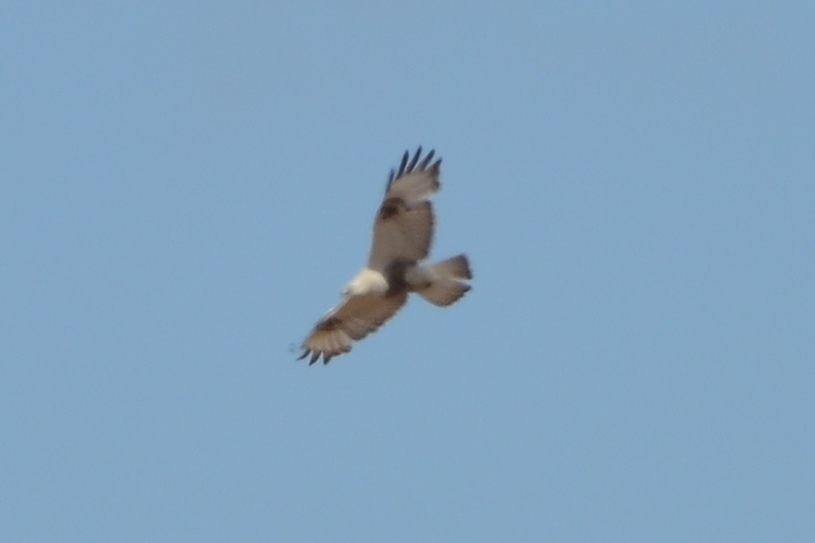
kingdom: Animalia
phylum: Chordata
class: Aves
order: Accipitriformes
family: Accipitridae
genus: Buteo
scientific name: Buteo lagopus
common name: Rough-legged buzzard
